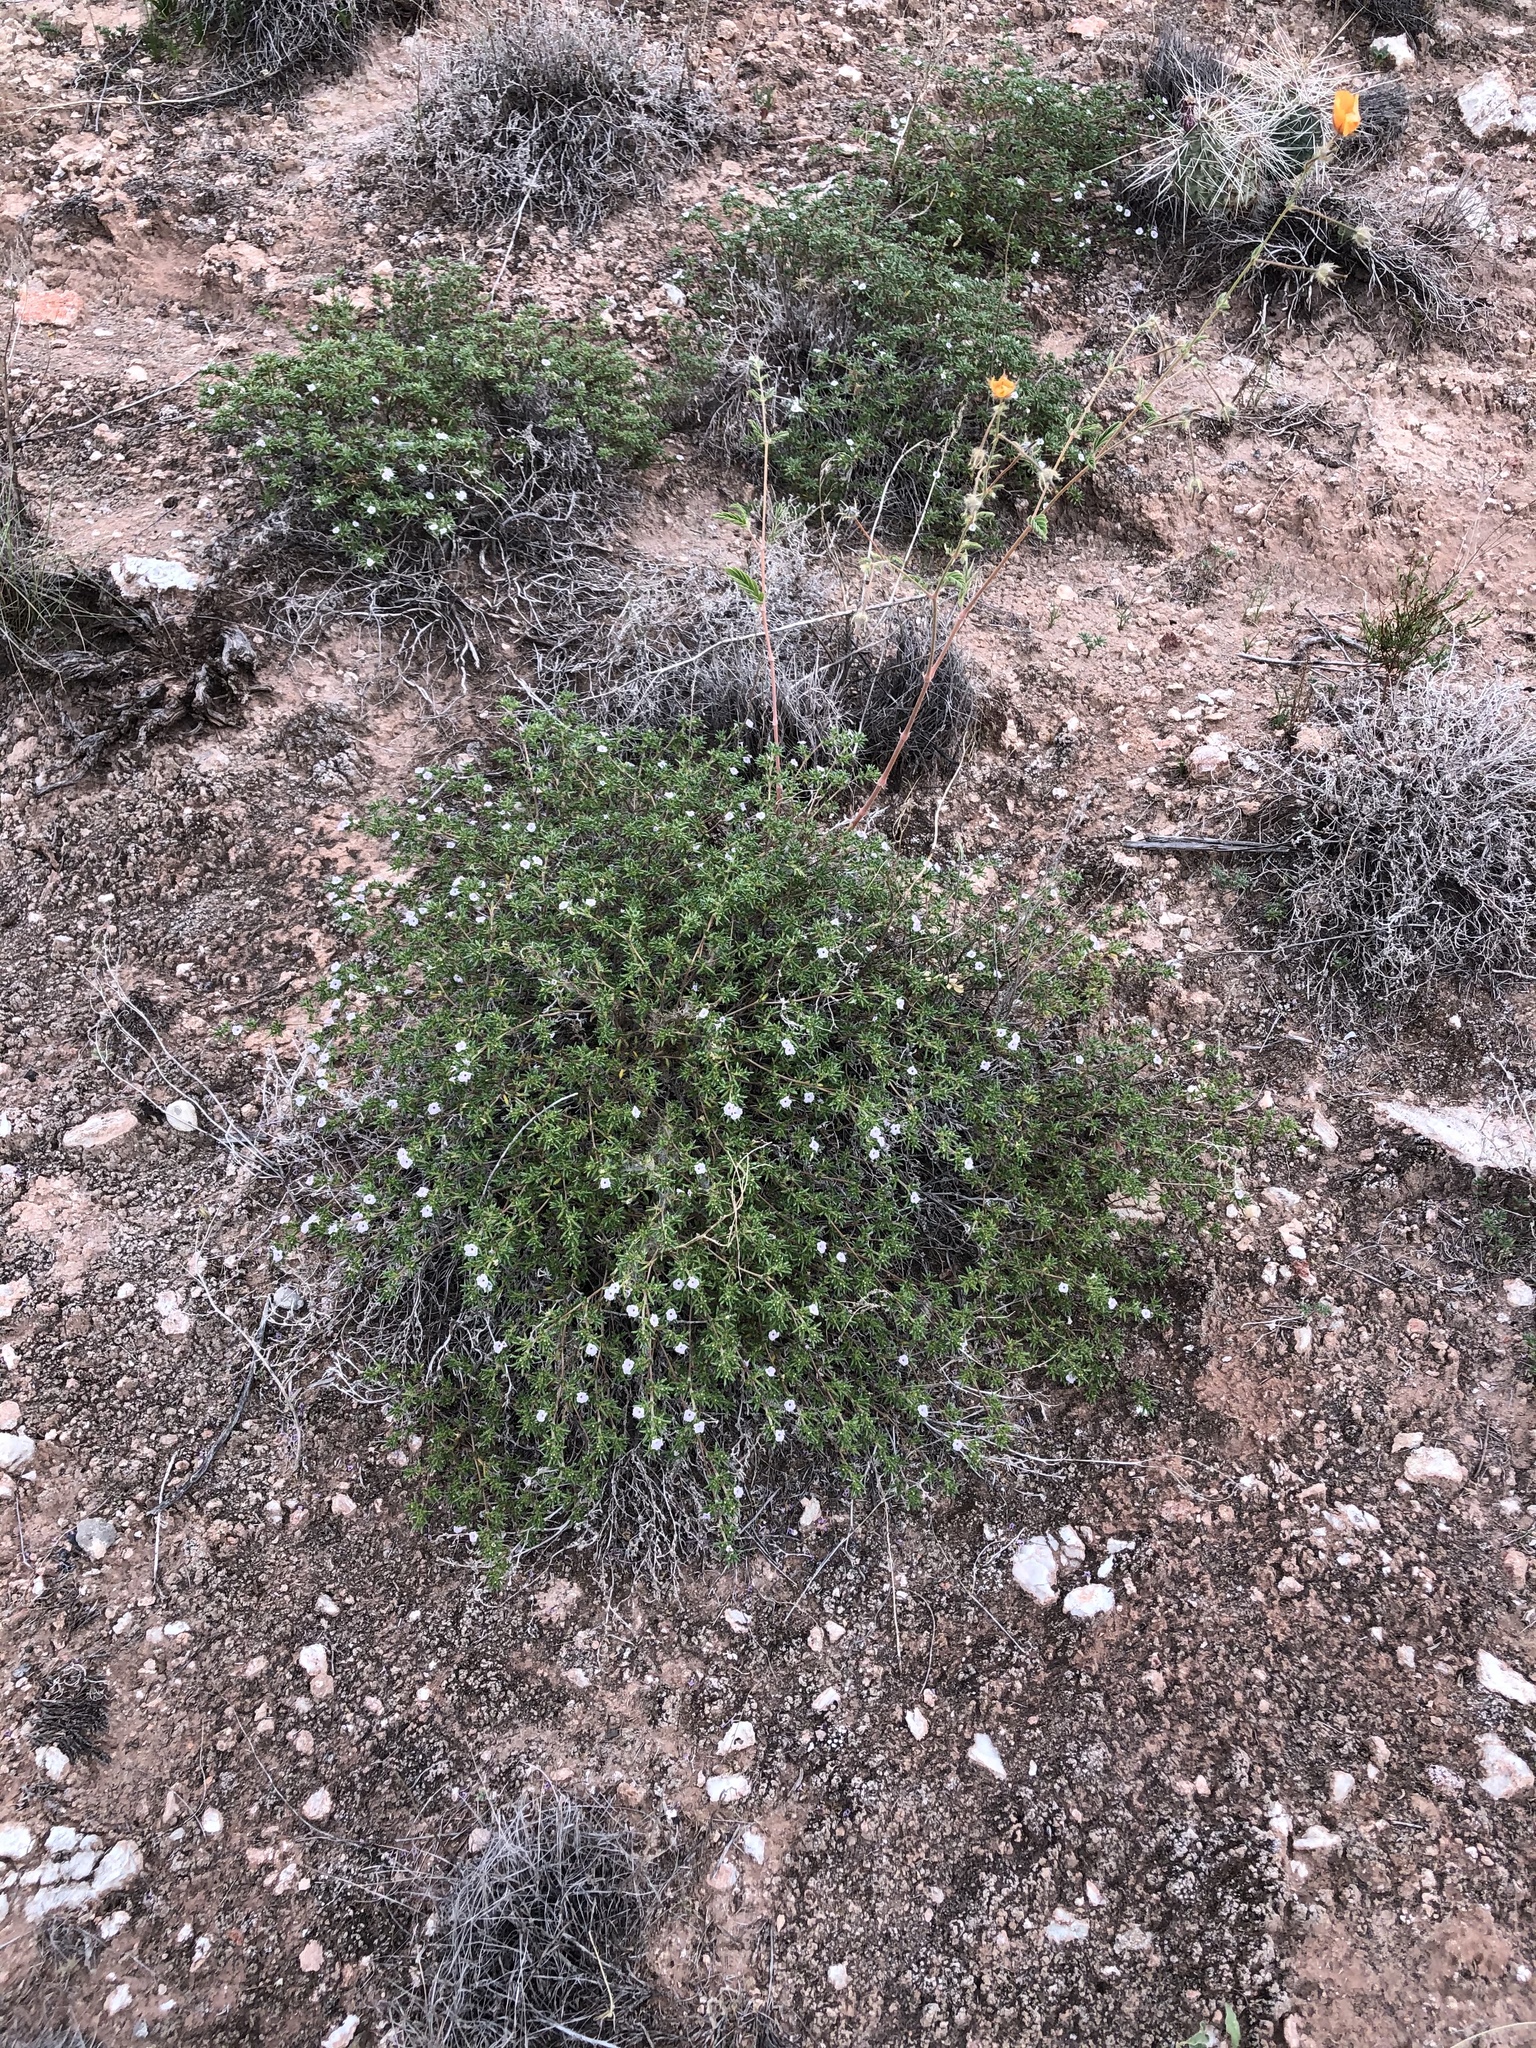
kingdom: Plantae
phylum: Tracheophyta
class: Magnoliopsida
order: Boraginales
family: Ehretiaceae
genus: Tiquilia
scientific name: Tiquilia hispidissima
